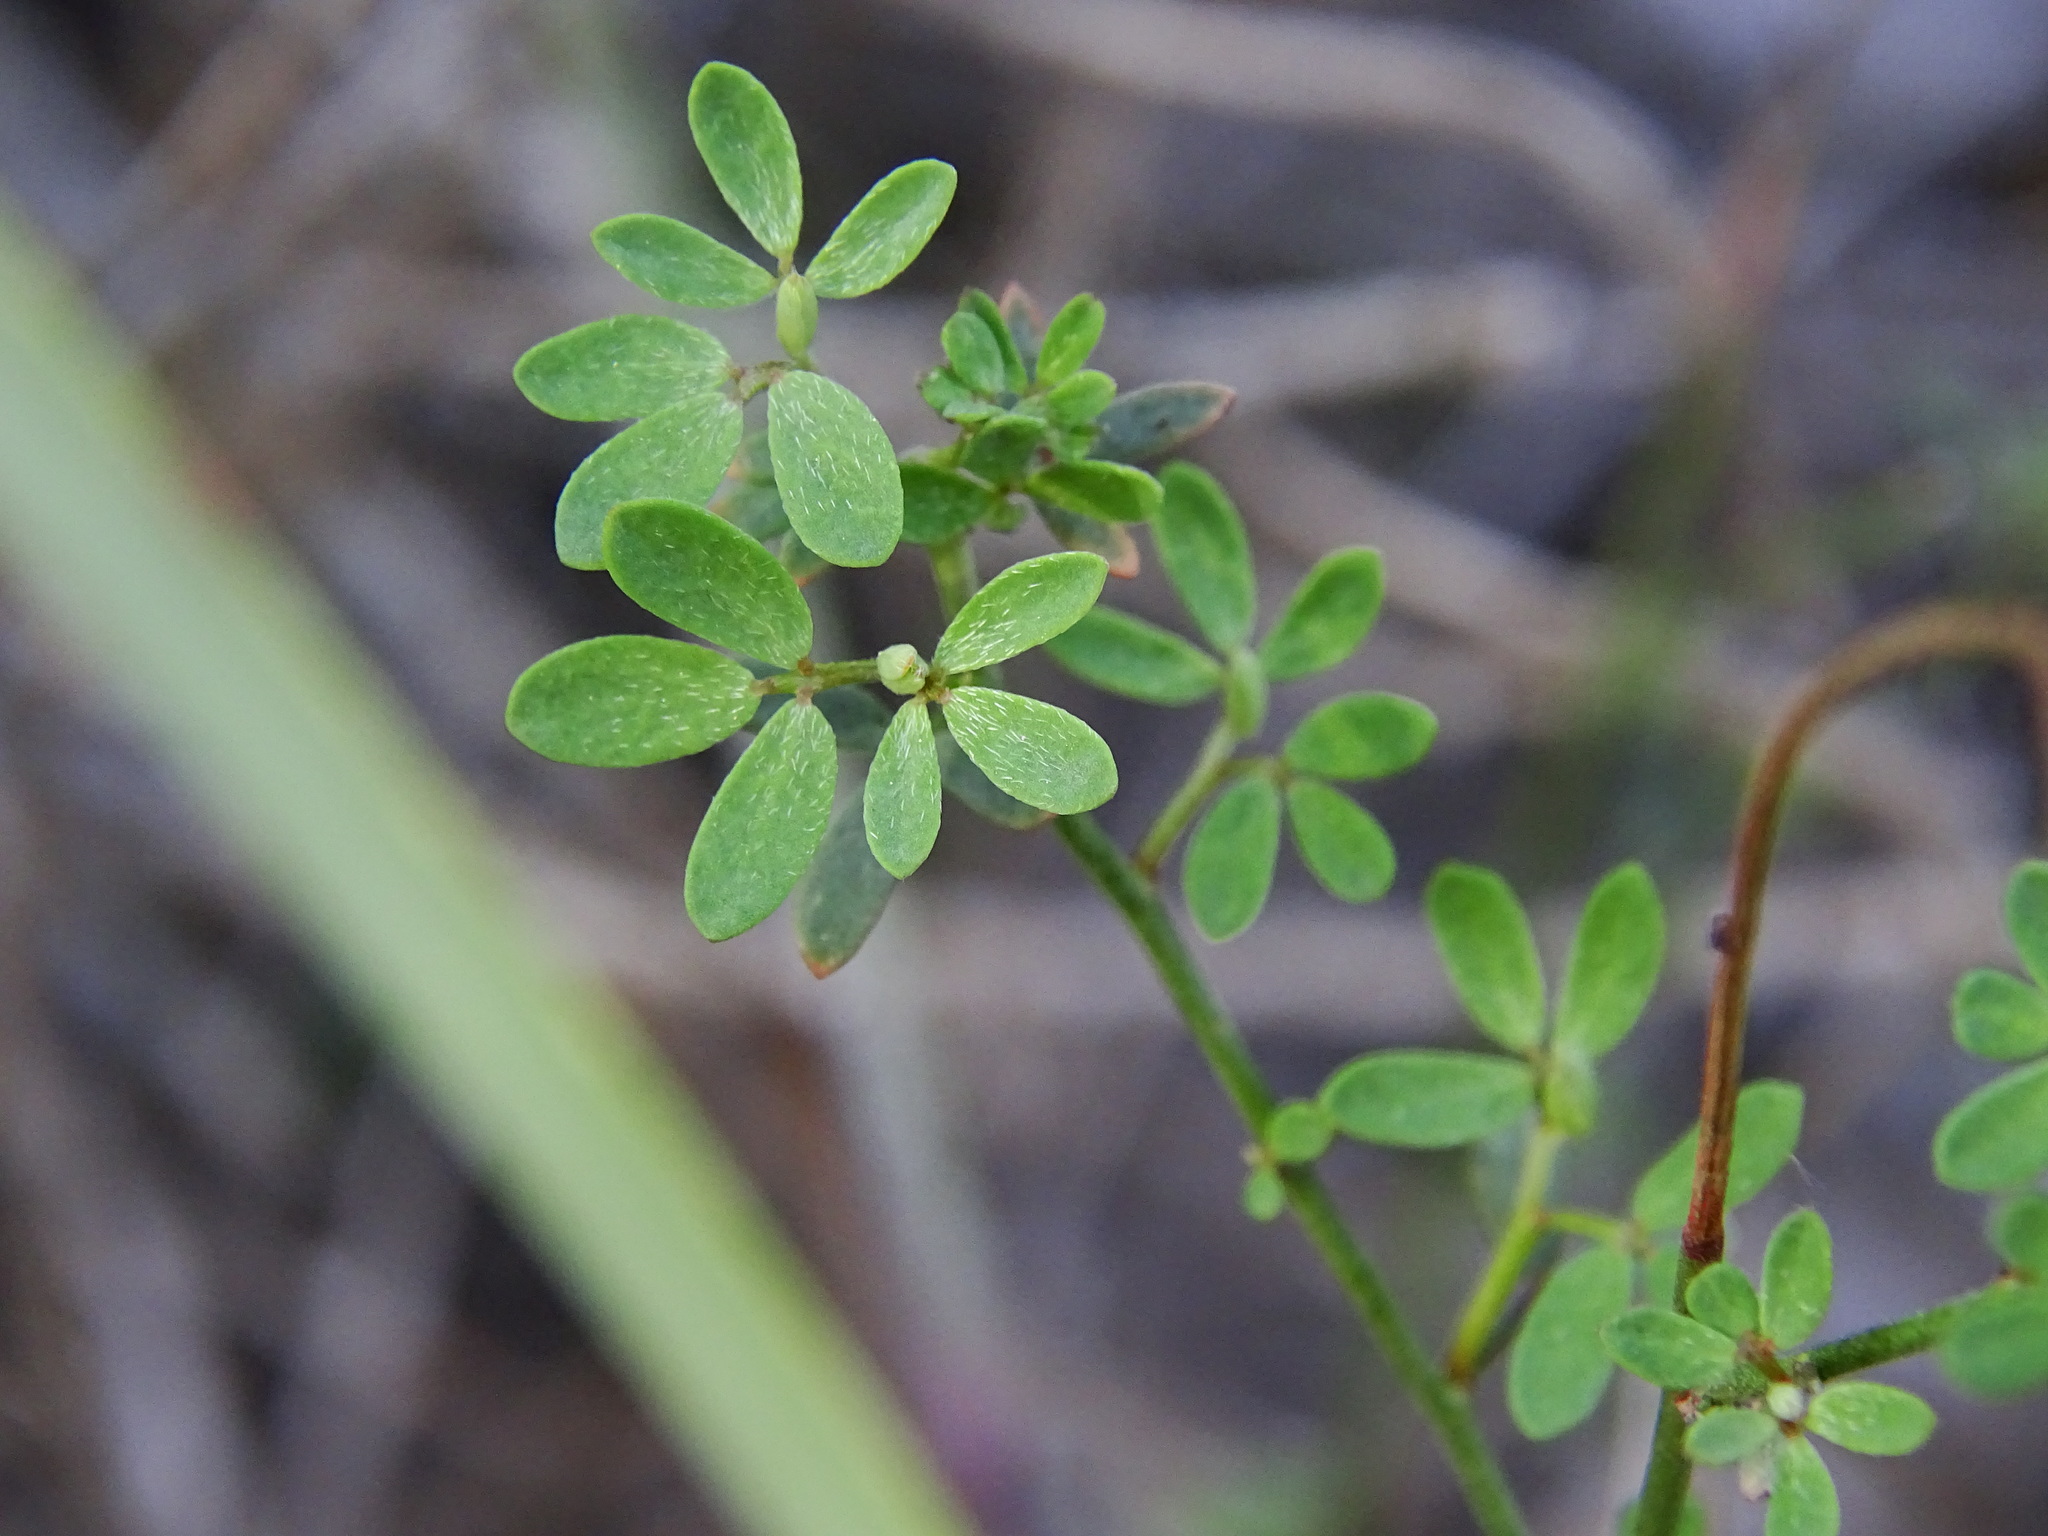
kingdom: Plantae
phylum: Tracheophyta
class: Magnoliopsida
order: Fabales
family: Fabaceae
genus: Acmispon
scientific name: Acmispon glaber
